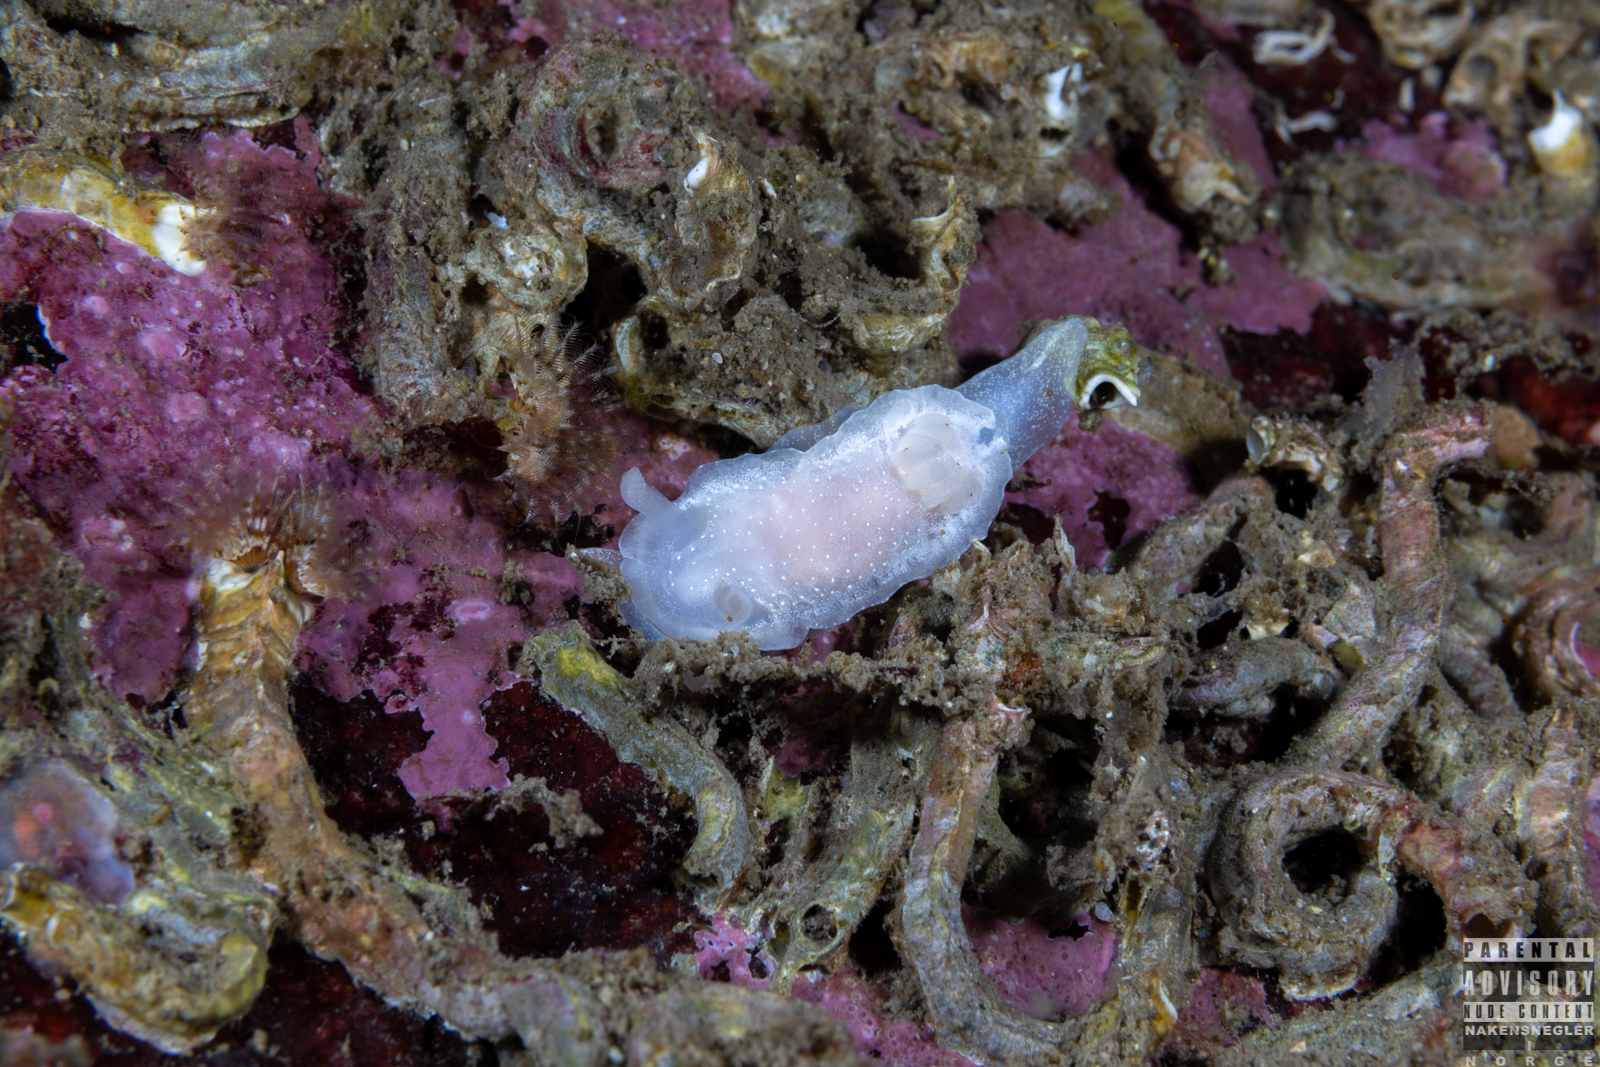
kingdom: Animalia
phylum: Mollusca
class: Gastropoda
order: Nudibranchia
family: Goniodorididae
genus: Okenia
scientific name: Okenia
